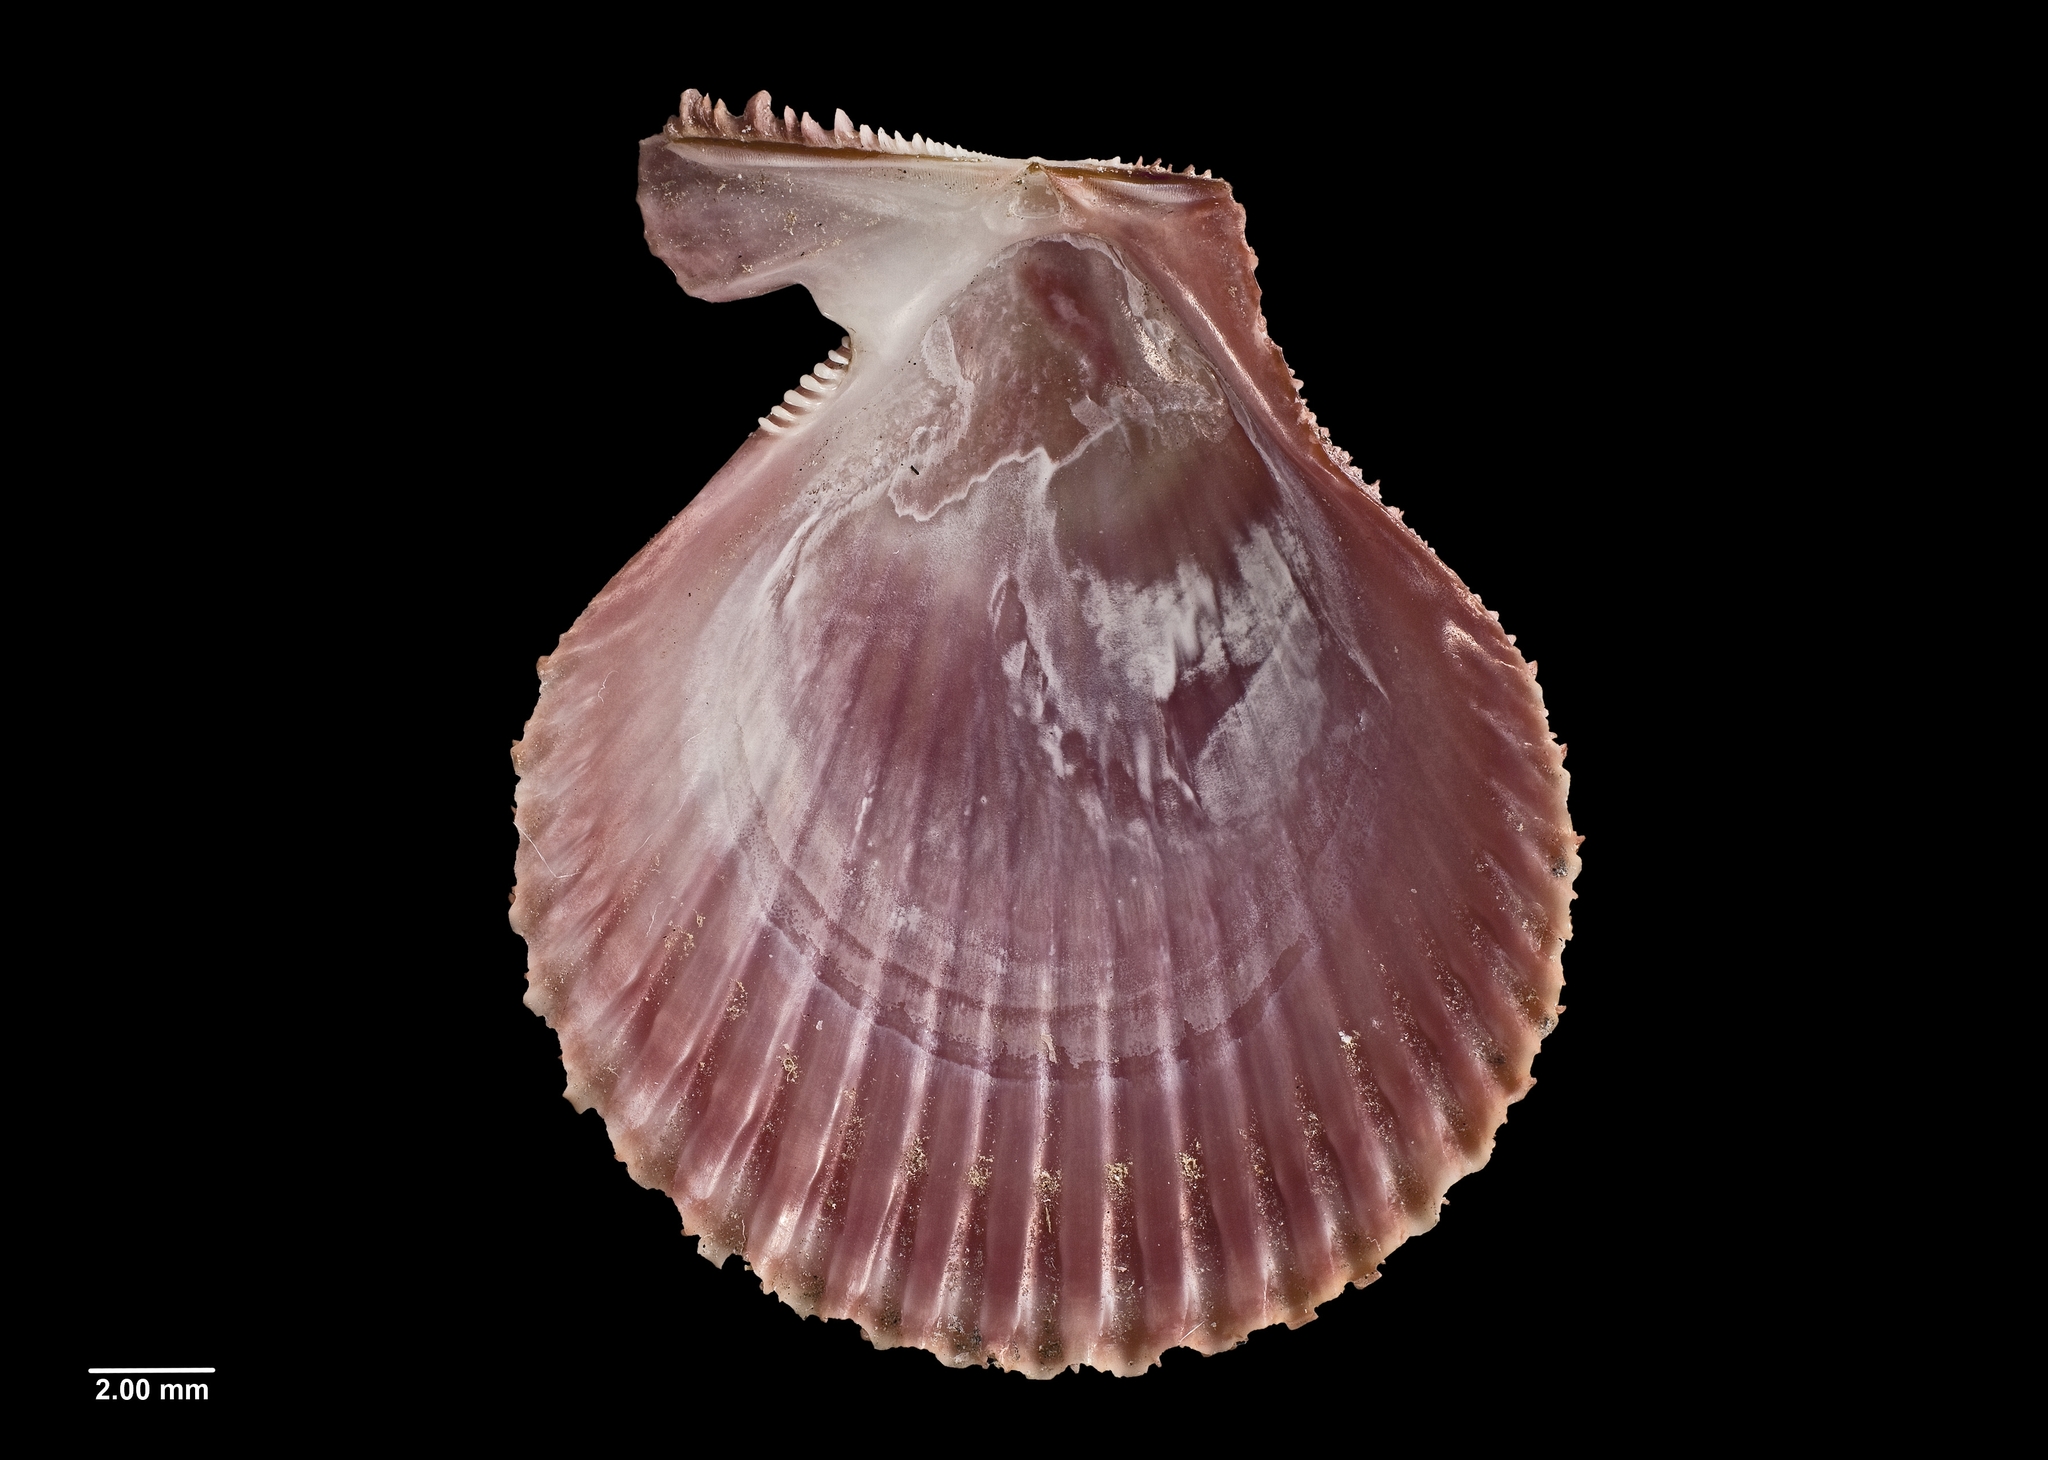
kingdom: Animalia
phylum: Mollusca
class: Bivalvia
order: Pectinida
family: Pectinidae
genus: Mimachlamys
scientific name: Mimachlamys sanguinea
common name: Noble scallop
